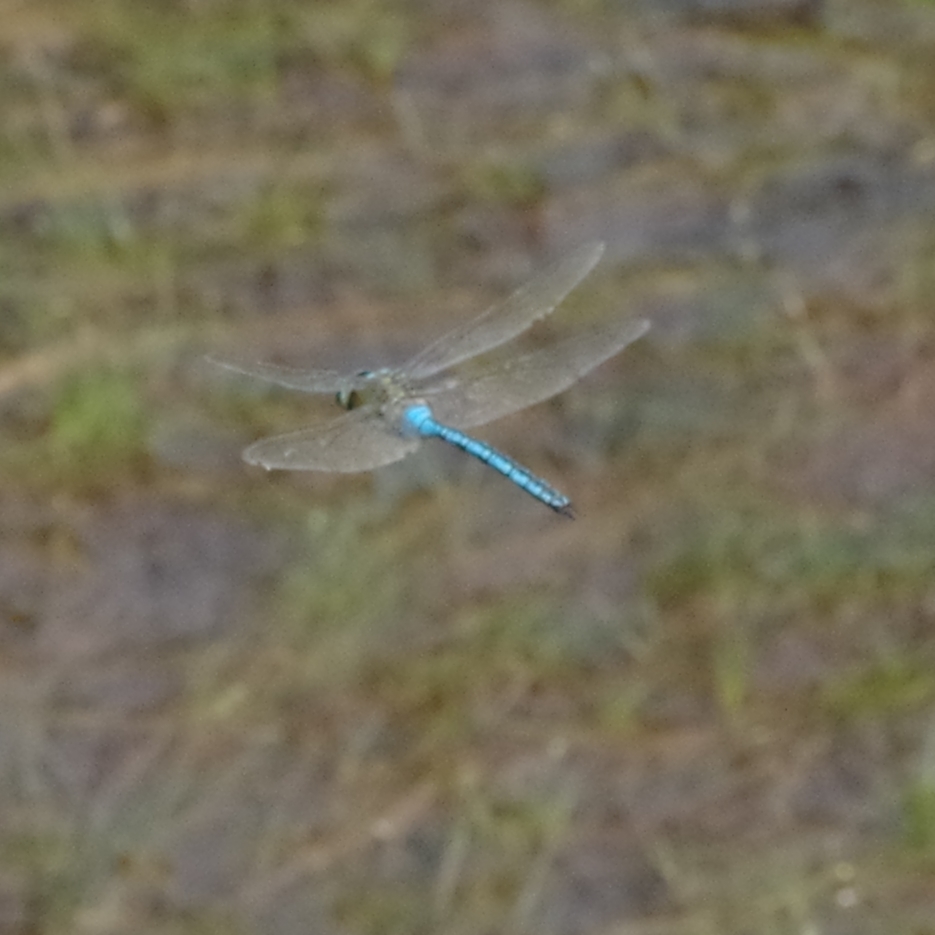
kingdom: Animalia
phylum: Arthropoda
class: Insecta
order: Odonata
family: Aeshnidae
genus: Anax
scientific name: Anax imperator
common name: Emperor dragonfly
